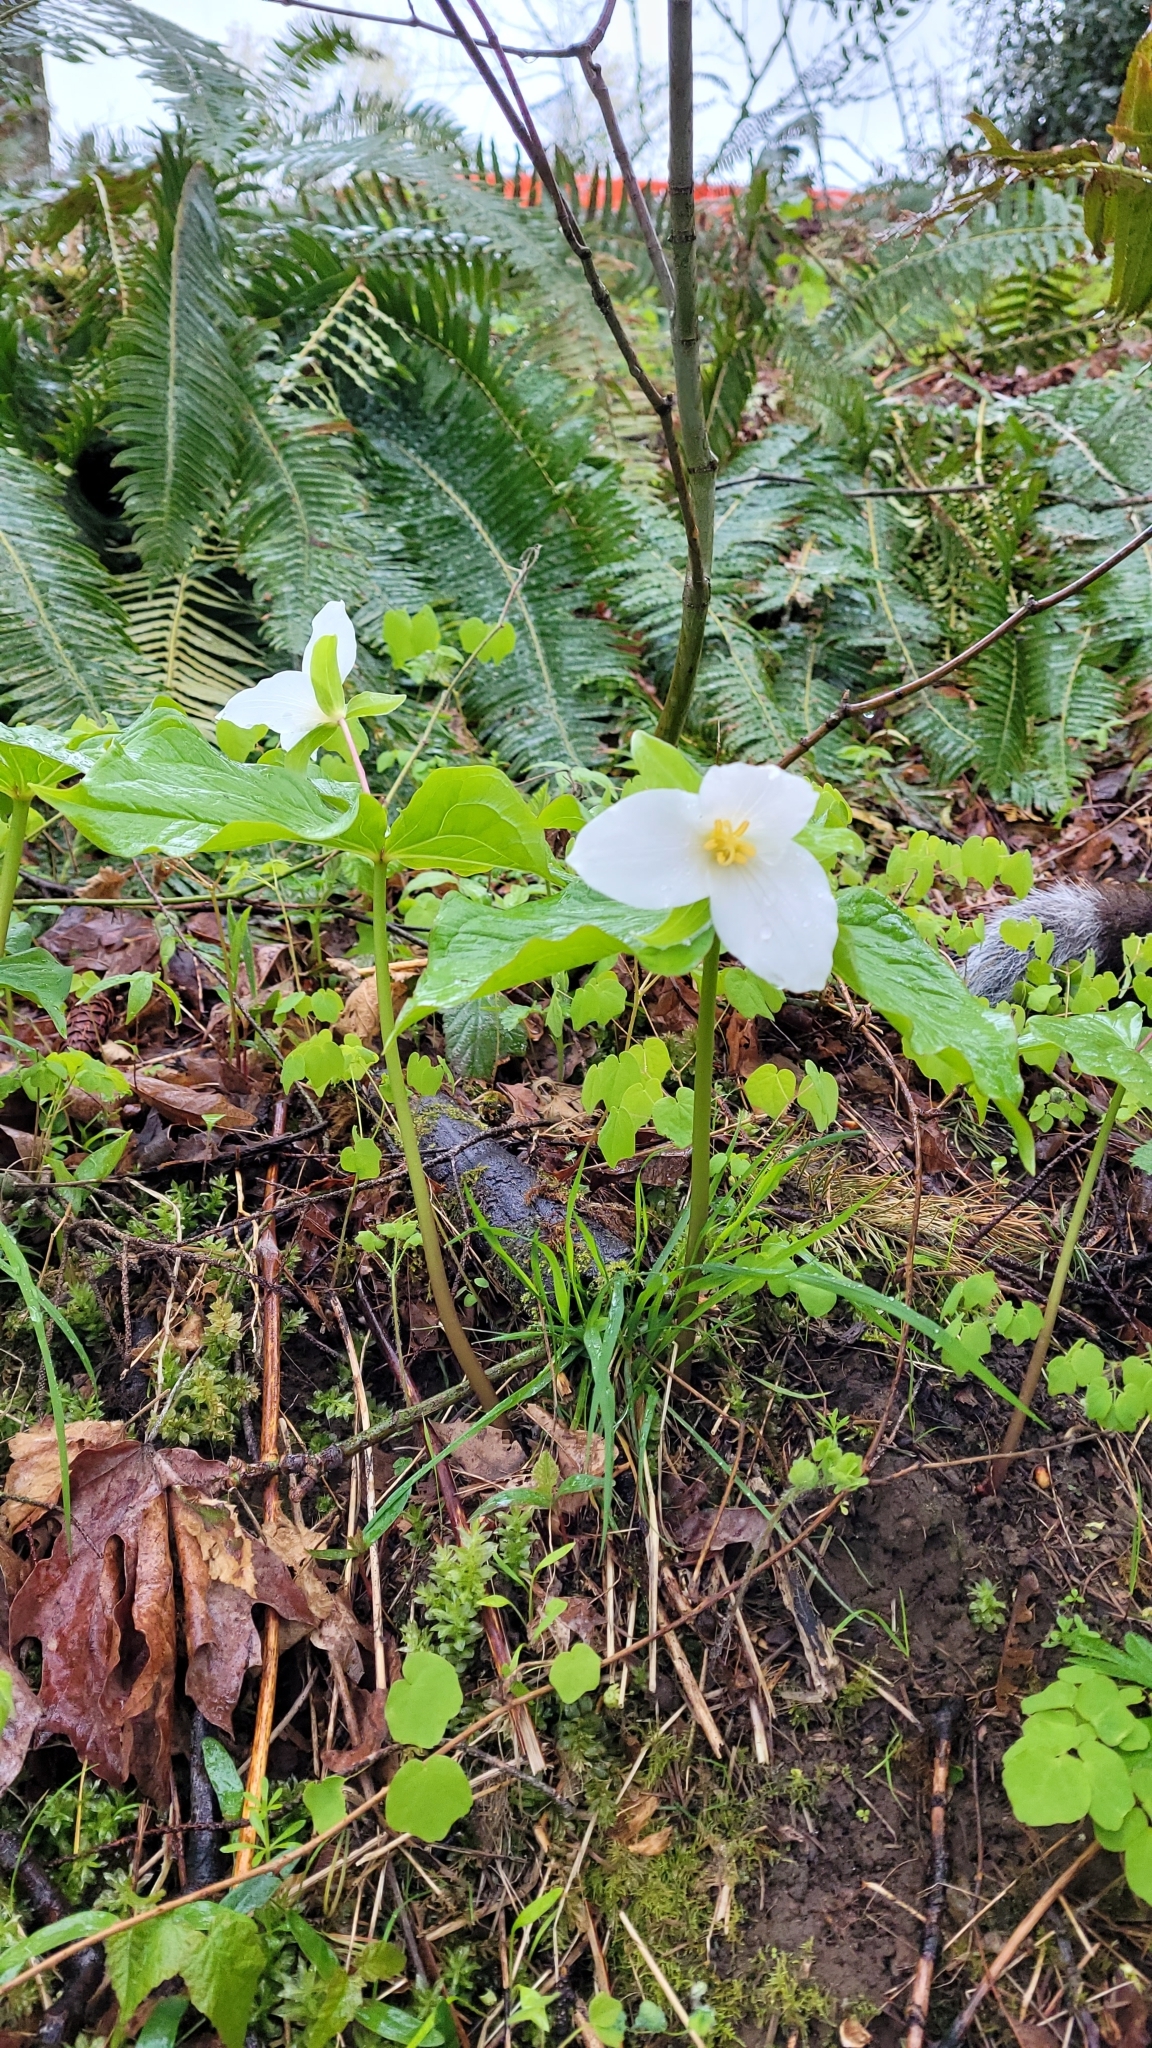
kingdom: Plantae
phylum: Tracheophyta
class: Liliopsida
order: Liliales
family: Melanthiaceae
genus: Trillium
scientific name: Trillium ovatum
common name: Pacific trillium
